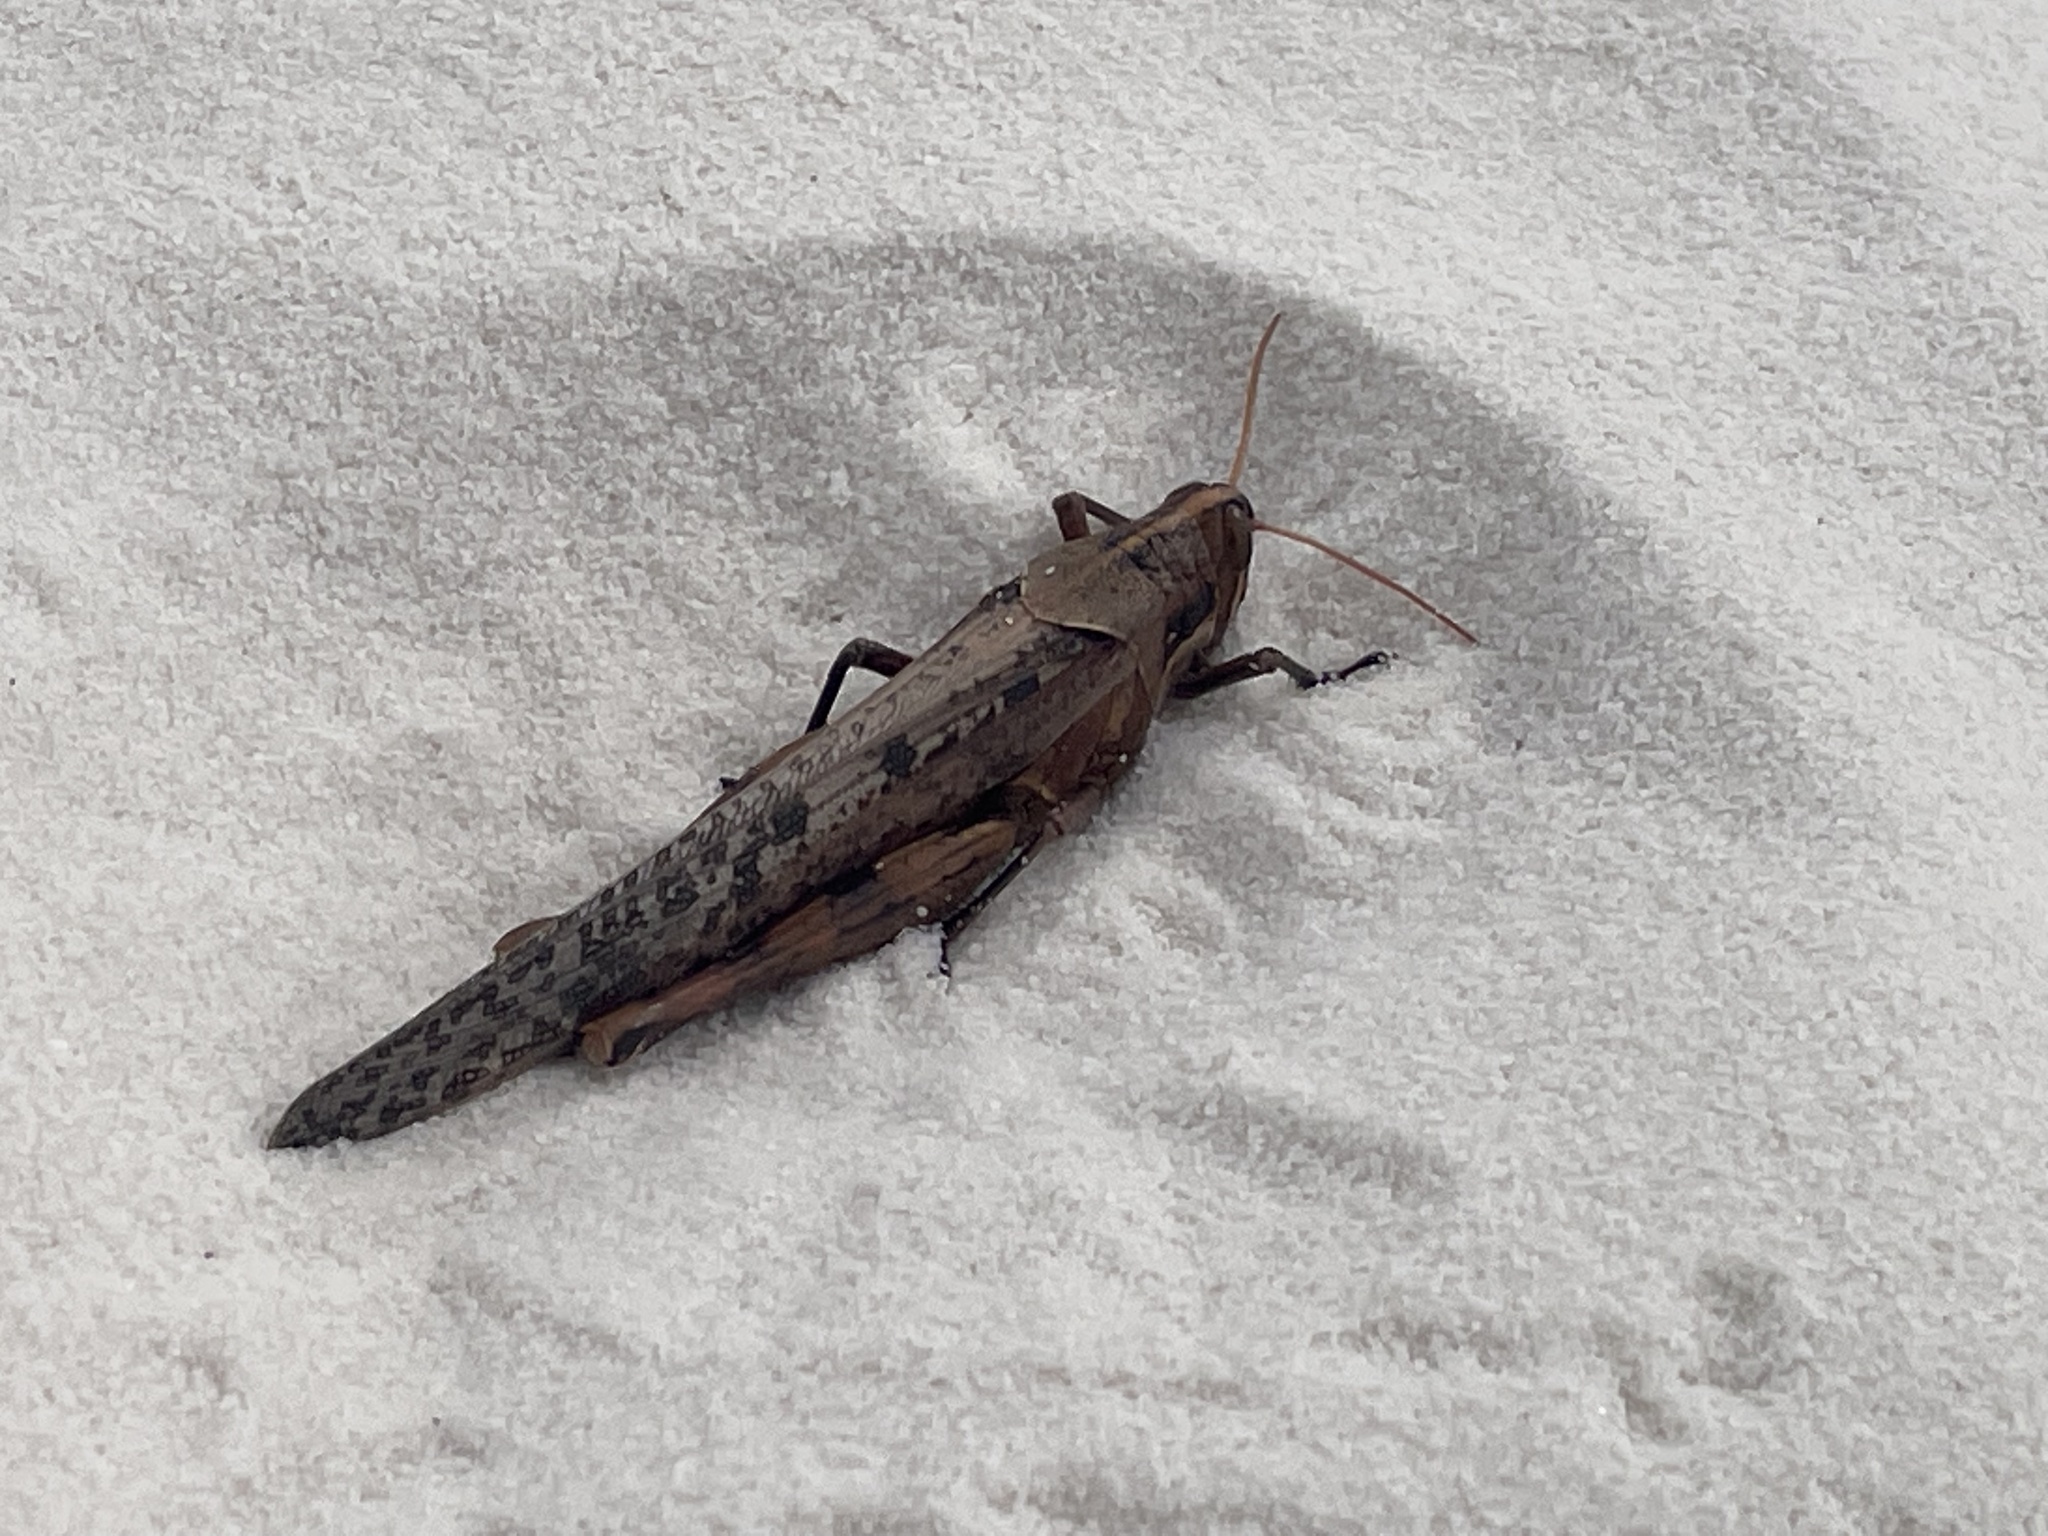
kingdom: Animalia
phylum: Arthropoda
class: Insecta
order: Orthoptera
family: Acrididae
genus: Schistocerca
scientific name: Schistocerca nitens
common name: Vagrant grasshopper
